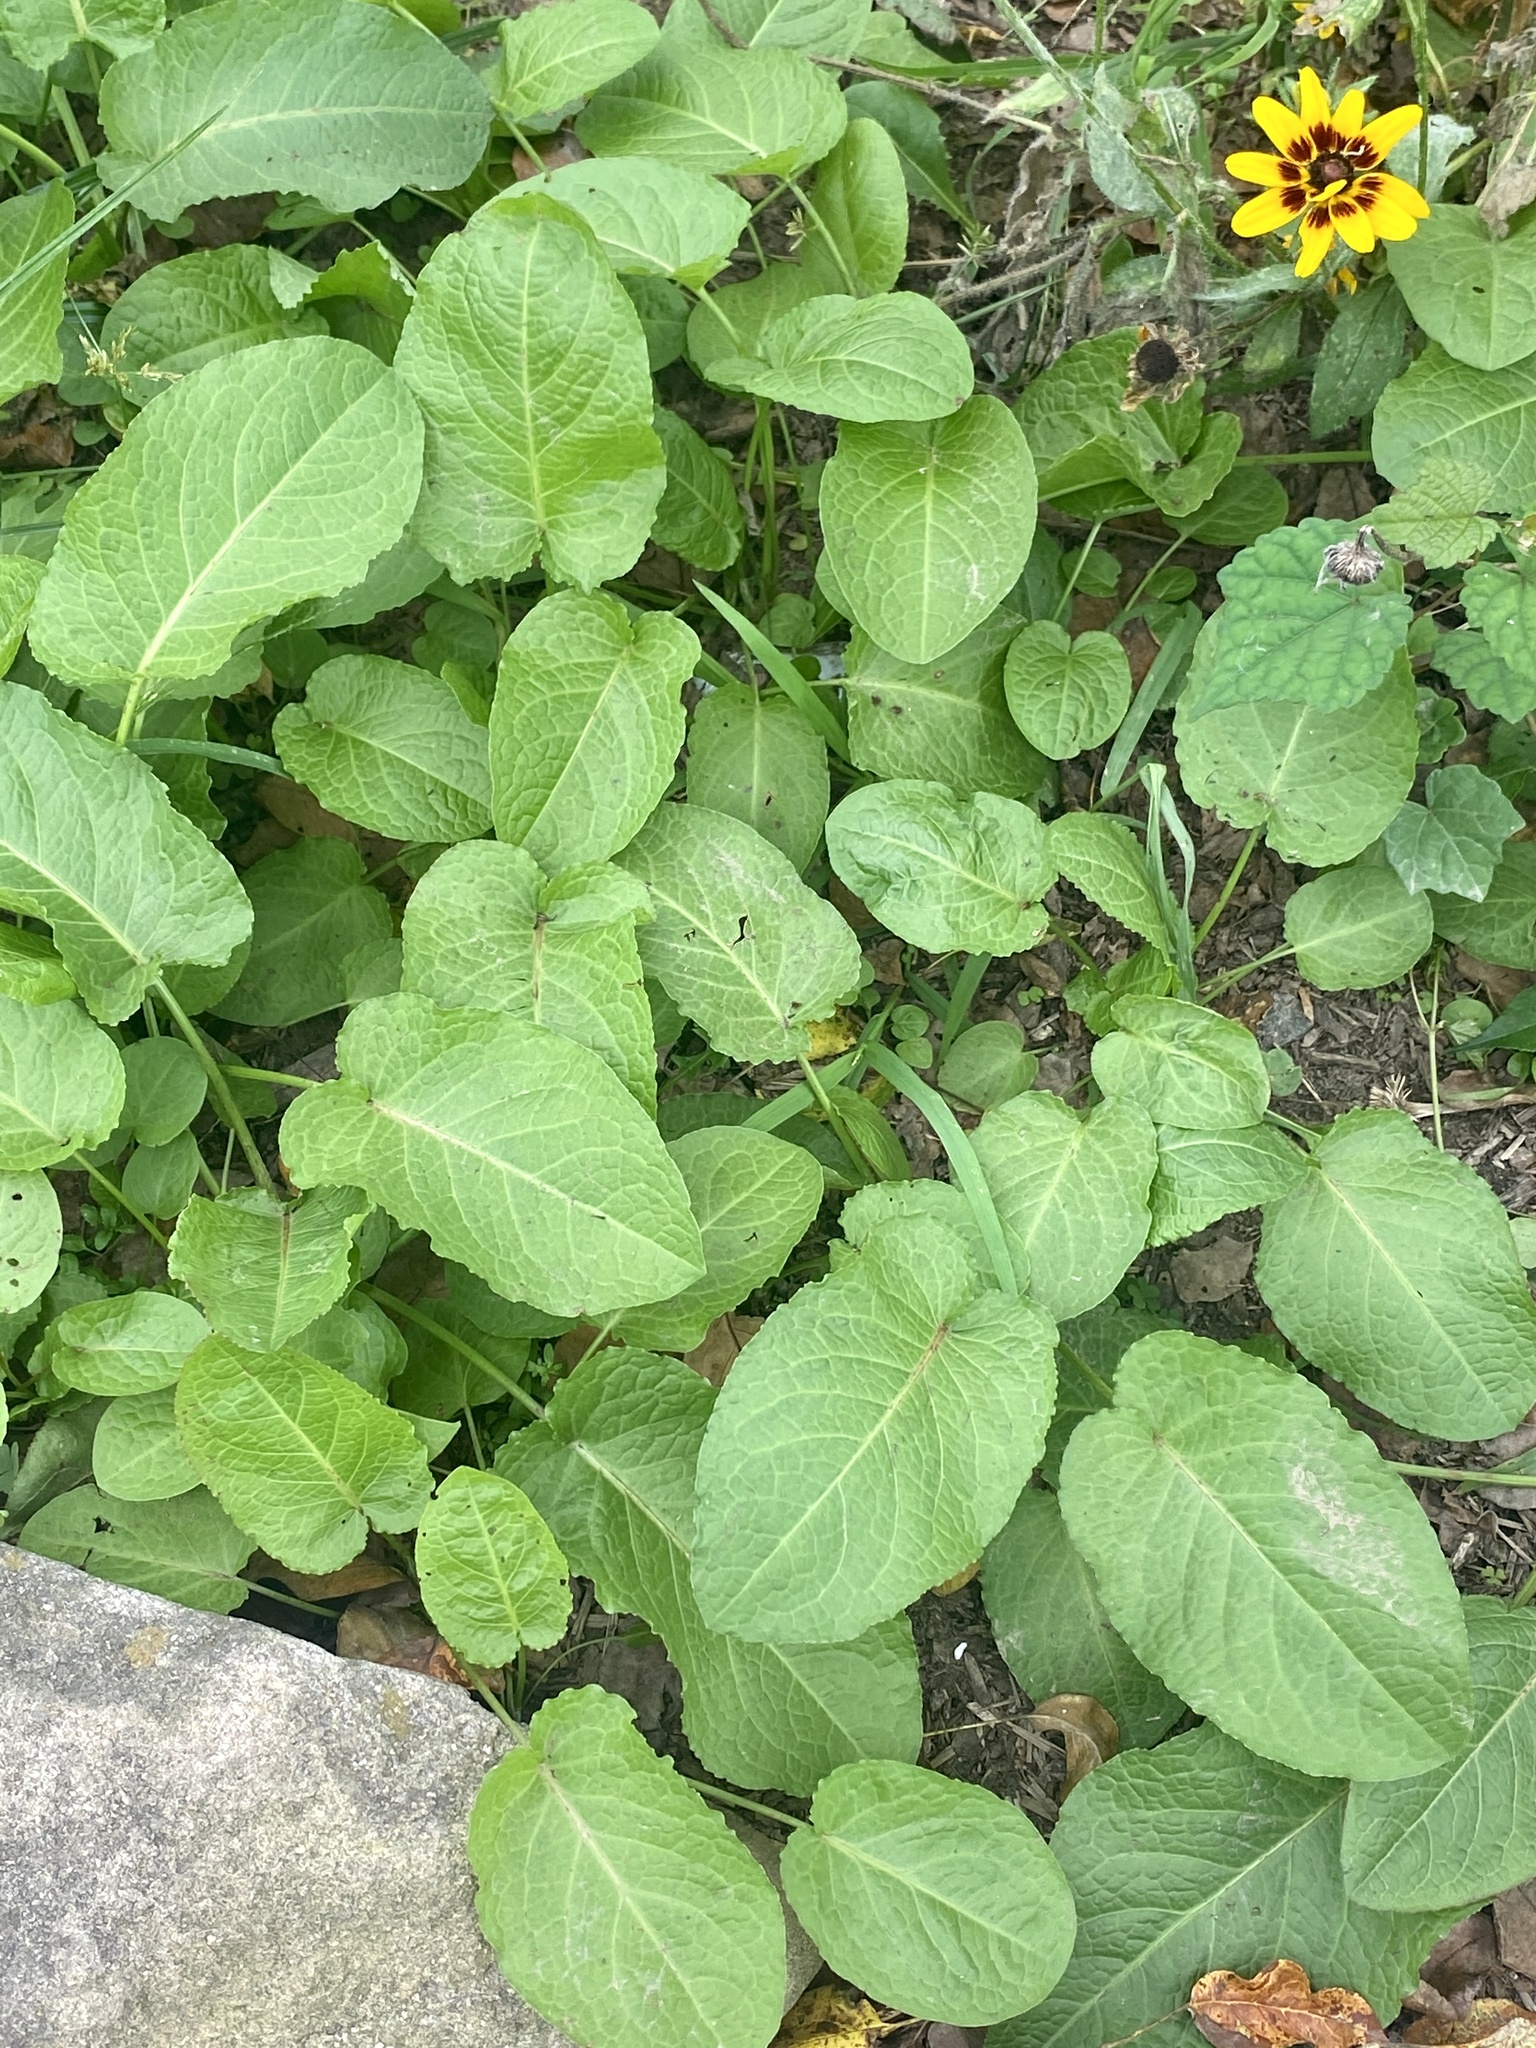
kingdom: Plantae
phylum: Tracheophyta
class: Magnoliopsida
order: Caryophyllales
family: Polygonaceae
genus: Rumex
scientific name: Rumex obtusifolius
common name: Bitter dock
